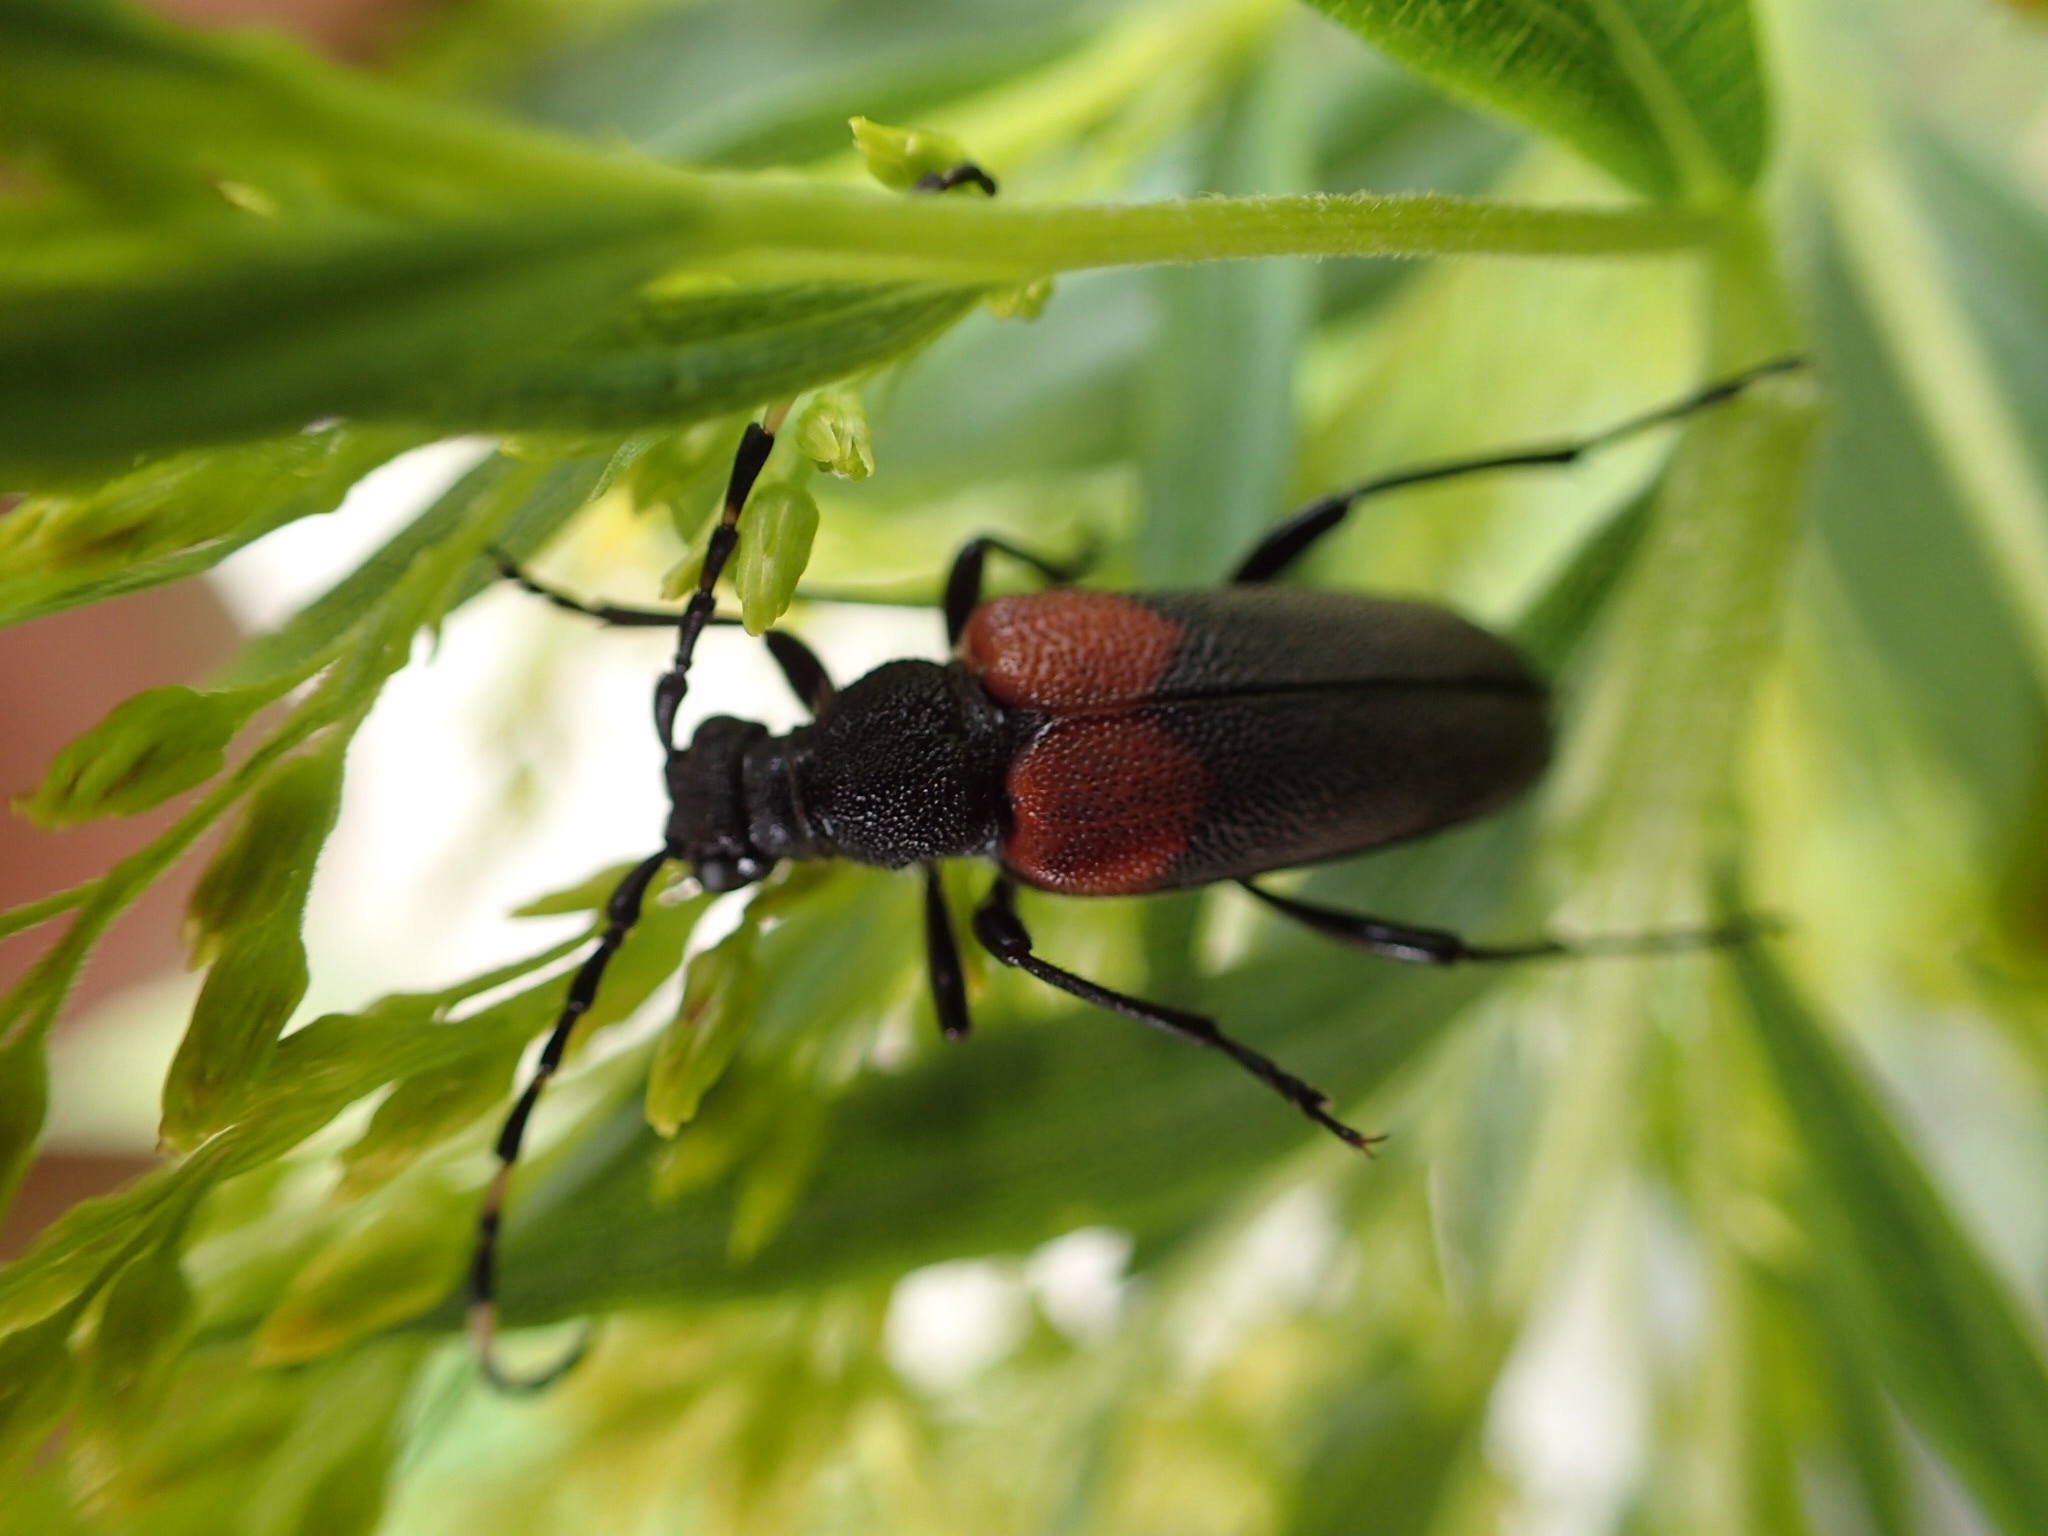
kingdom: Animalia
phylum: Arthropoda
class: Insecta
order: Coleoptera
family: Cerambycidae
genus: Stictoleptura
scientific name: Stictoleptura canadensis
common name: Red-shouldered pine borer
